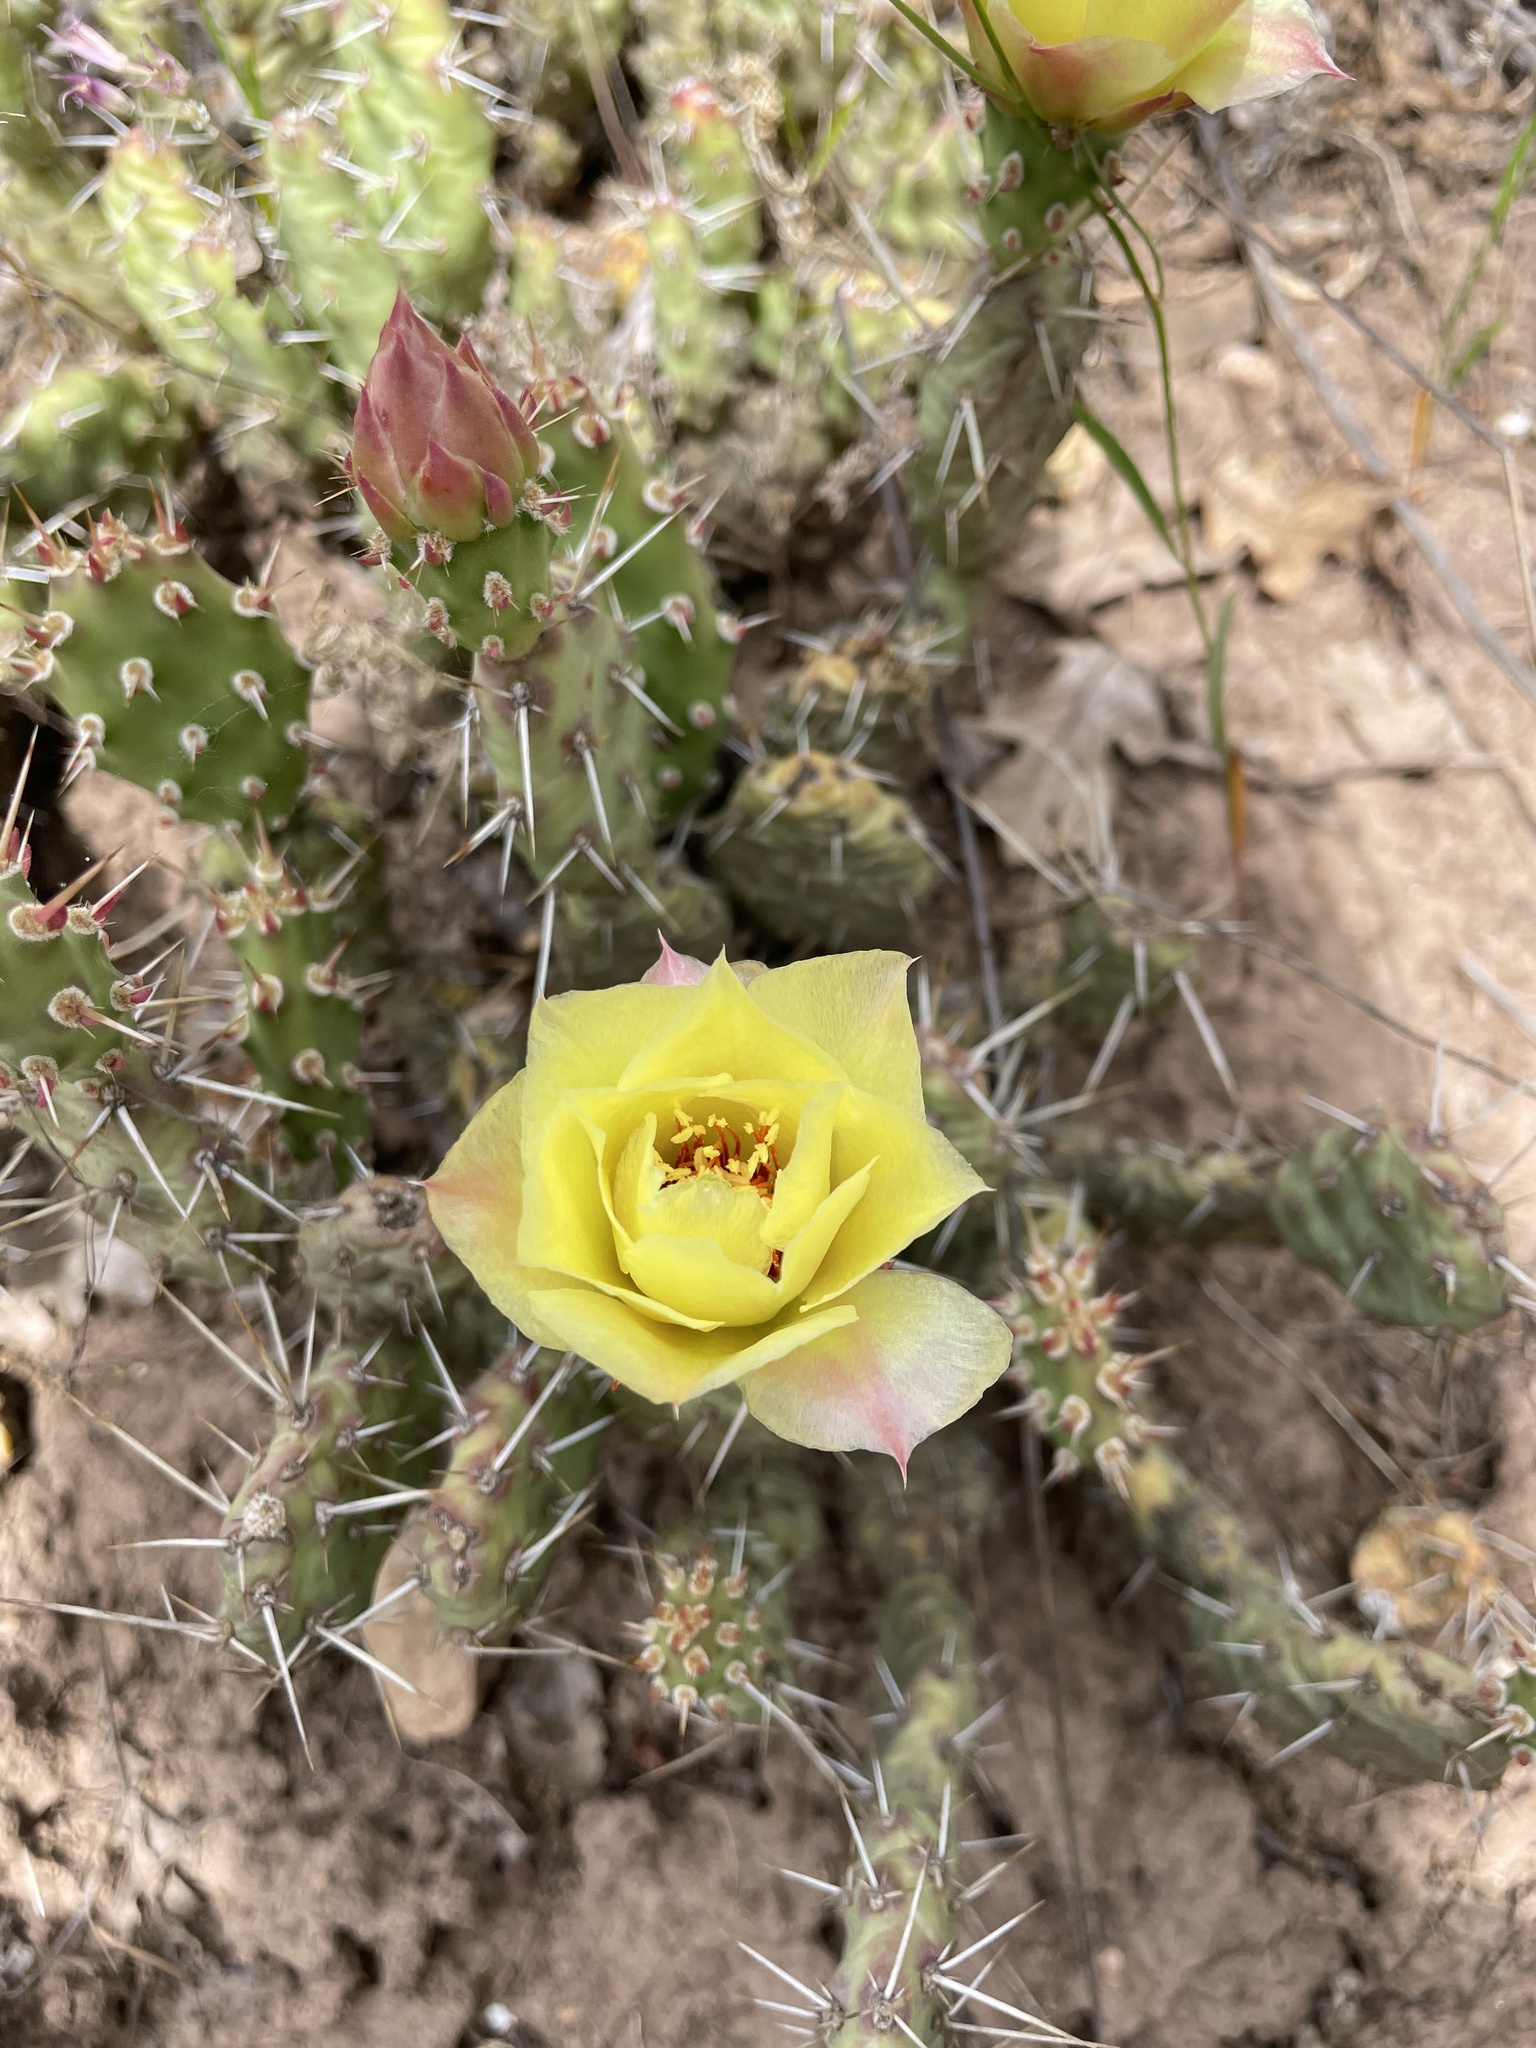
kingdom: Plantae
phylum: Tracheophyta
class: Magnoliopsida
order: Caryophyllales
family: Cactaceae
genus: Opuntia
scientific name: Opuntia fragilis
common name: Brittle cactus
